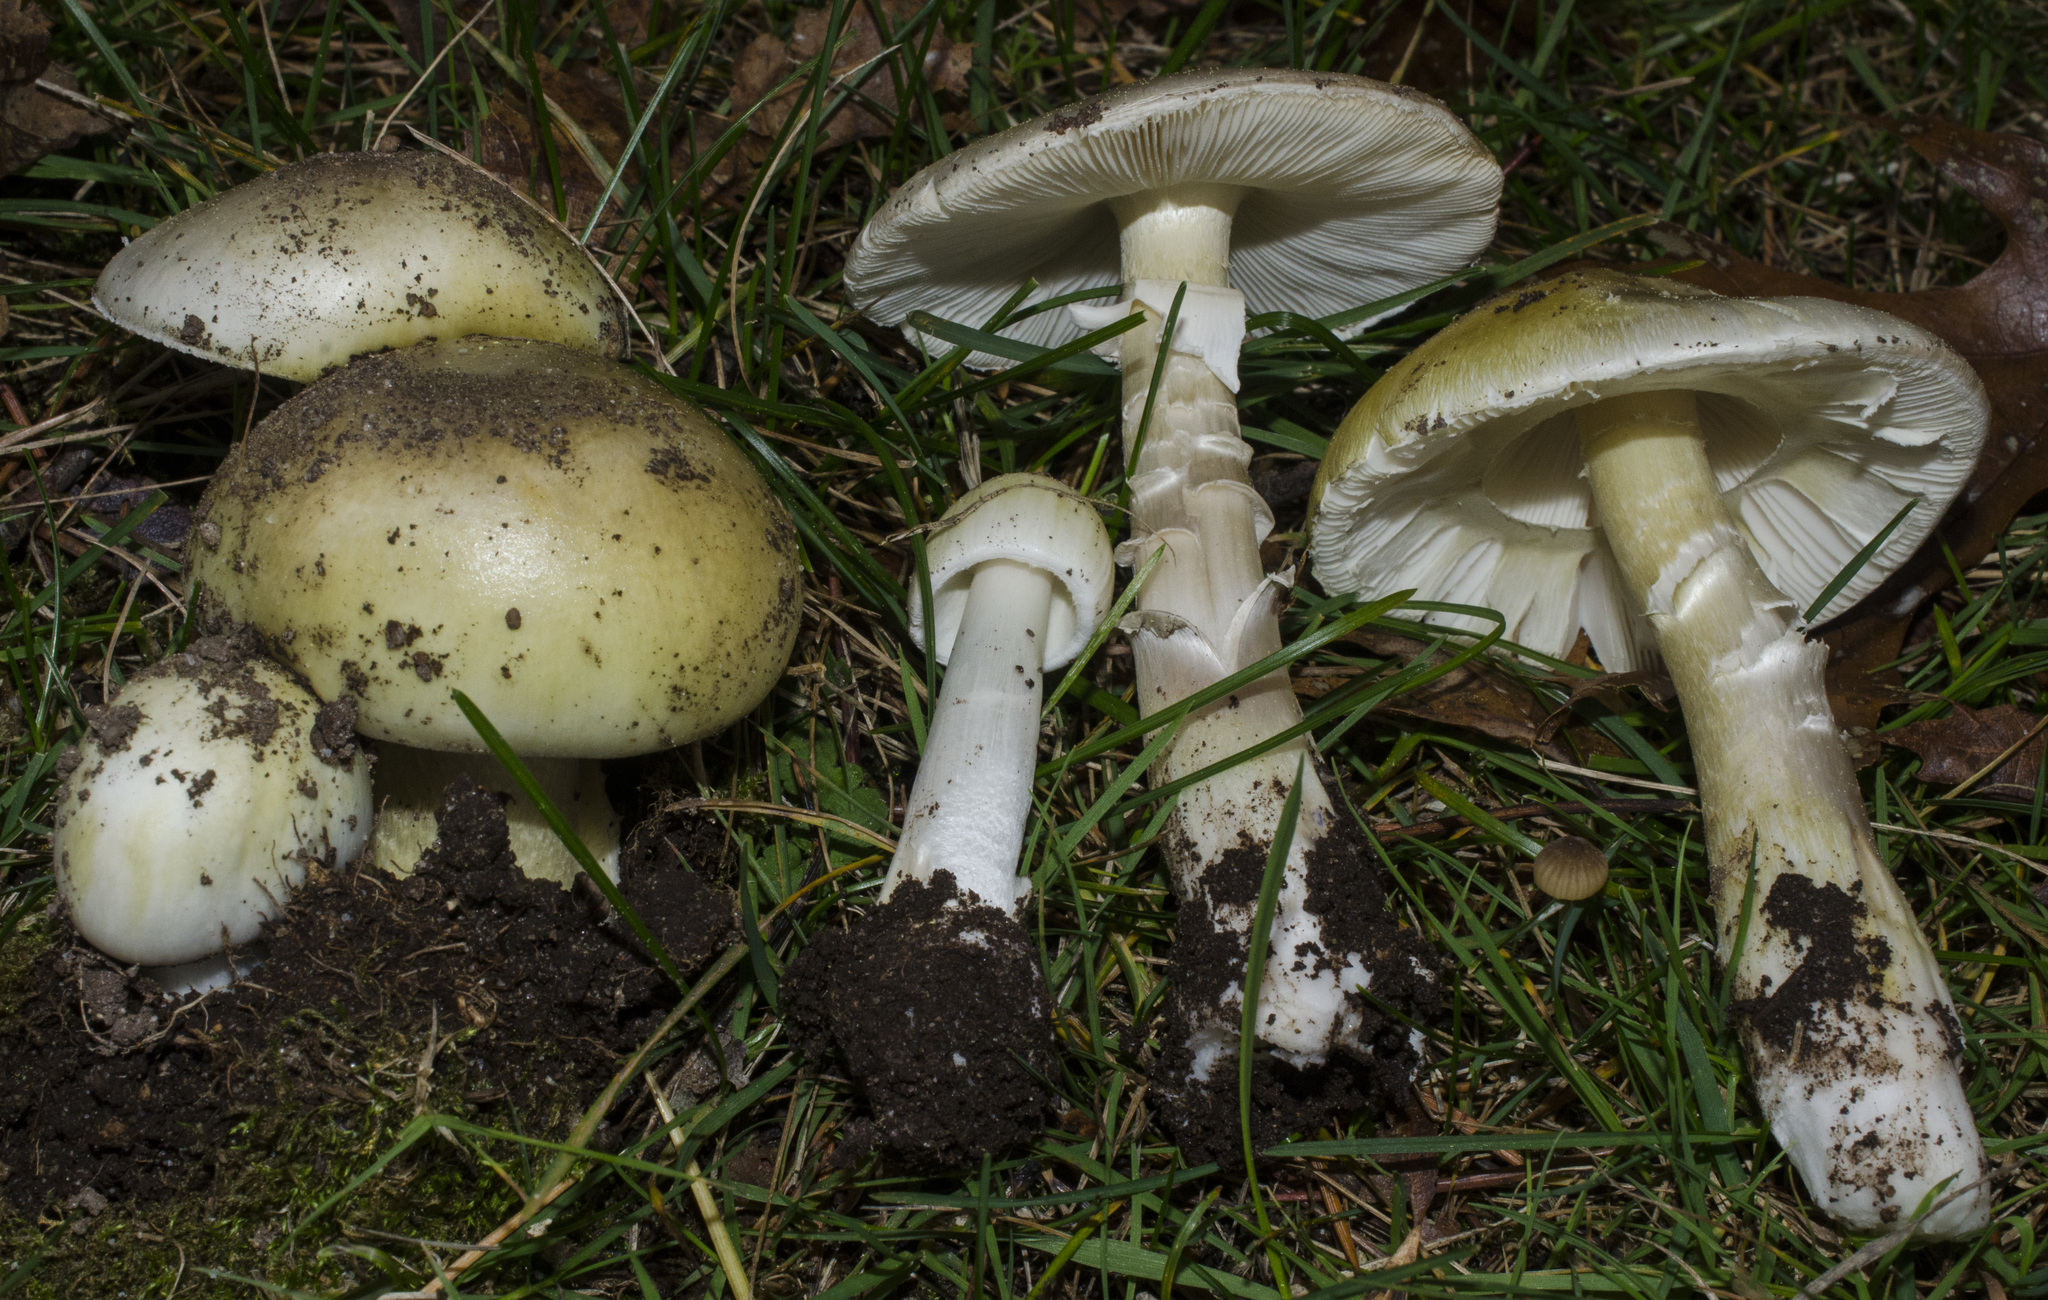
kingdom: Fungi
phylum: Basidiomycota
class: Agaricomycetes
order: Agaricales
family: Amanitaceae
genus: Amanita
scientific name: Amanita phalloides
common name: Death cap
